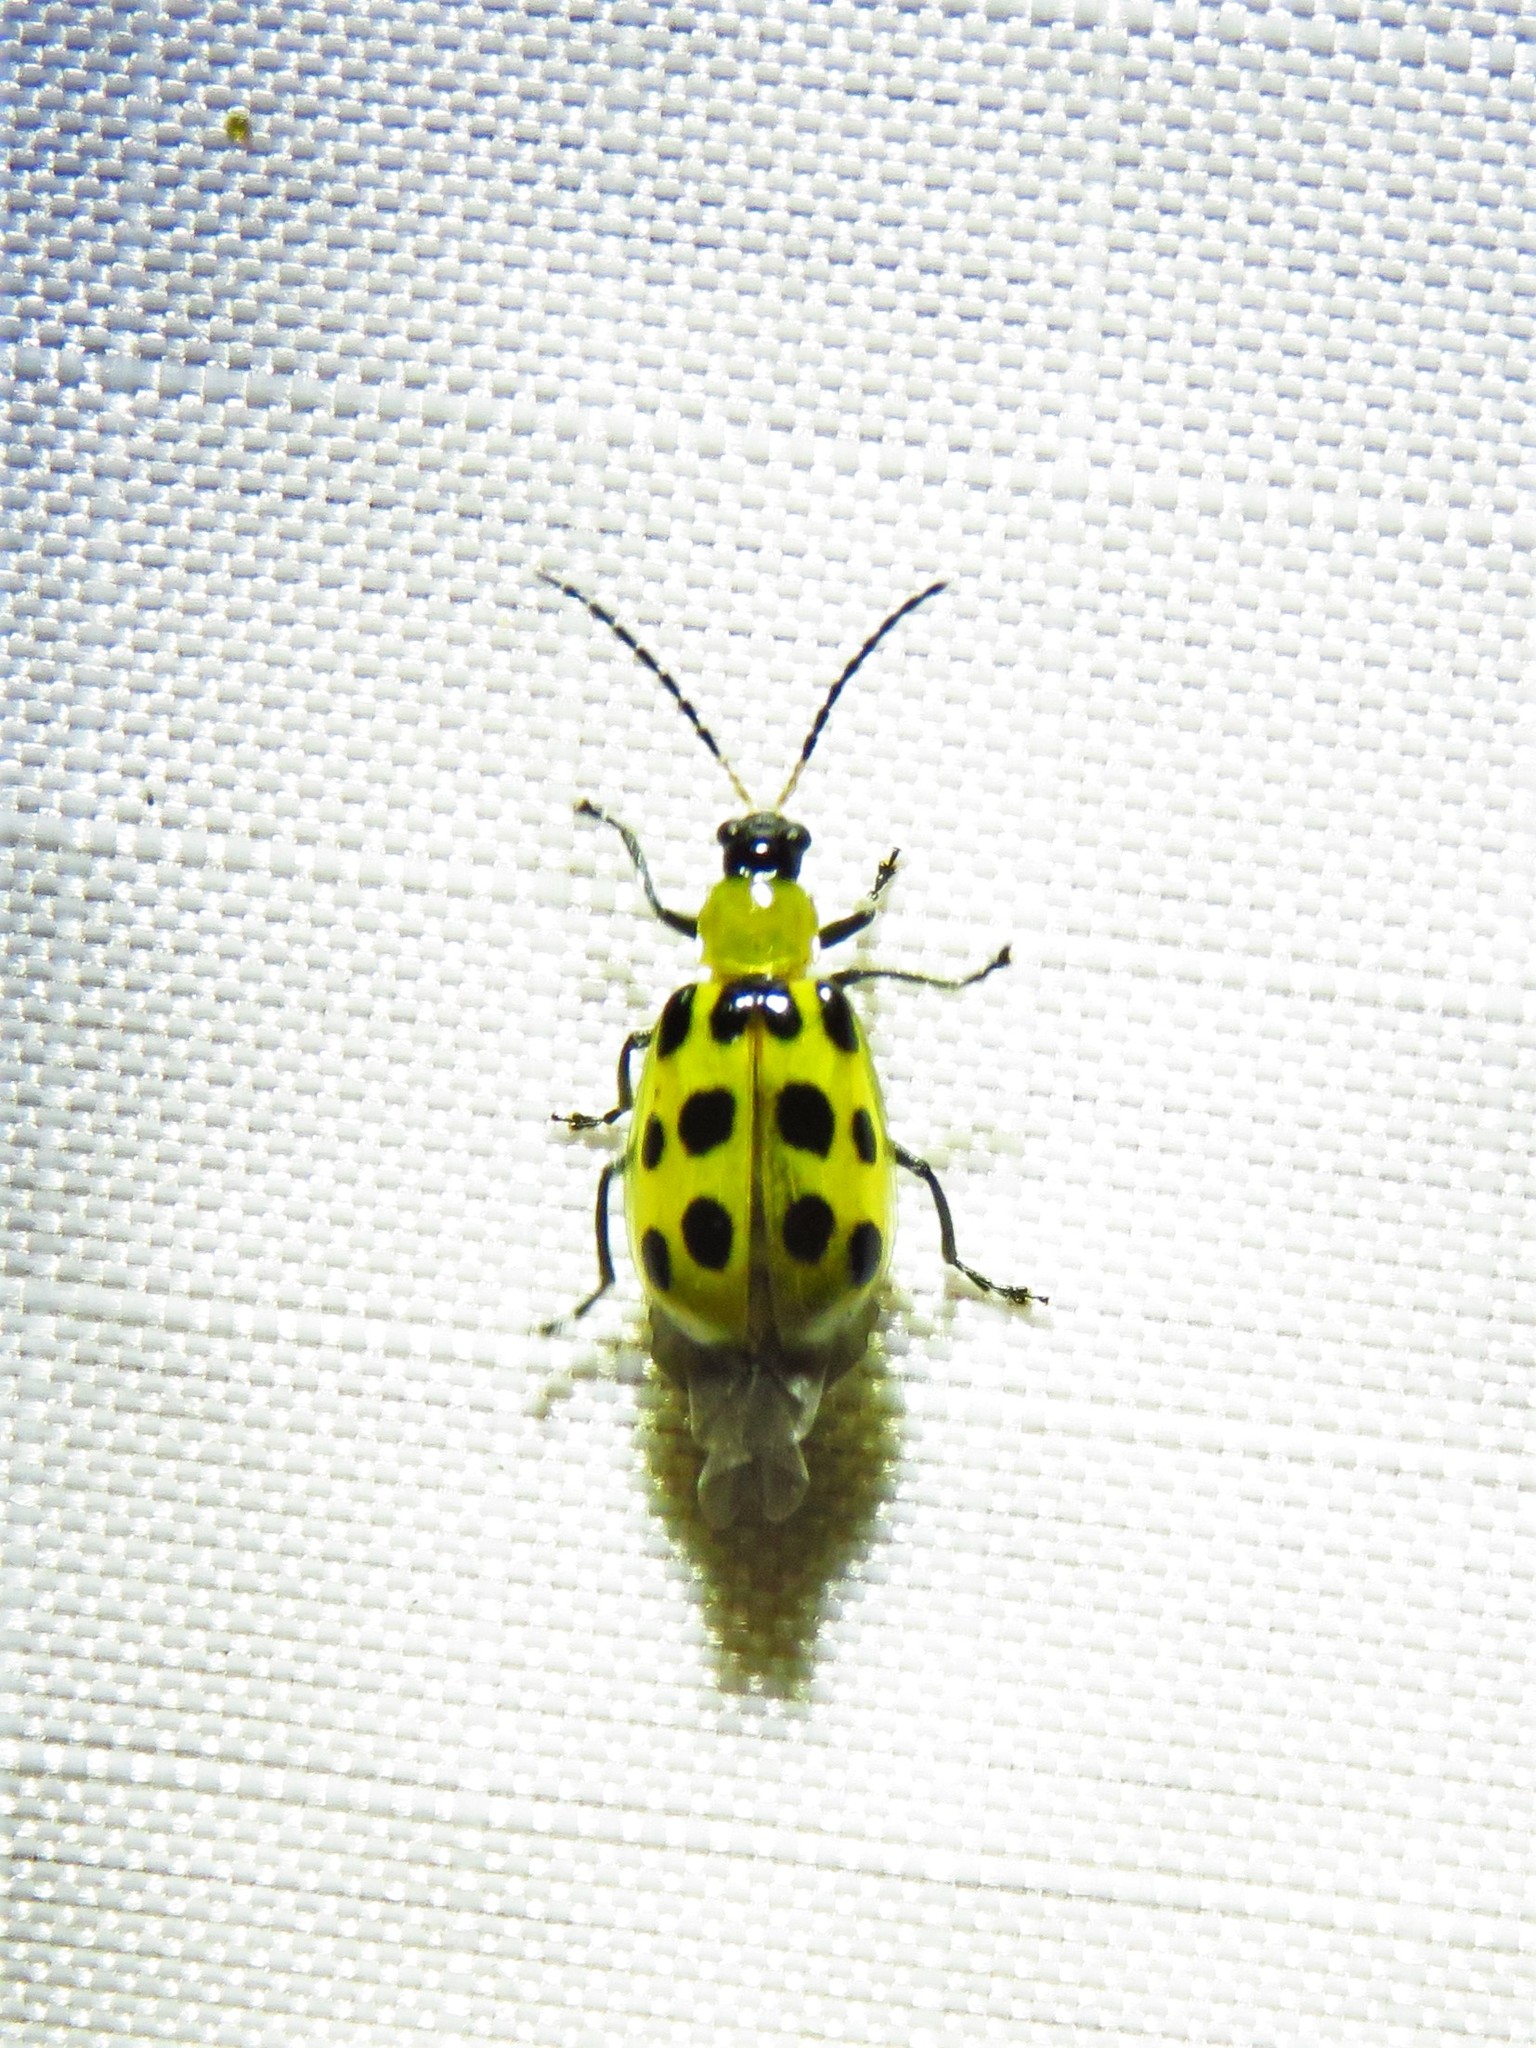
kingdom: Animalia
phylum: Arthropoda
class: Insecta
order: Coleoptera
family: Chrysomelidae
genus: Diabrotica
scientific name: Diabrotica undecimpunctata
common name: Spotted cucumber beetle
